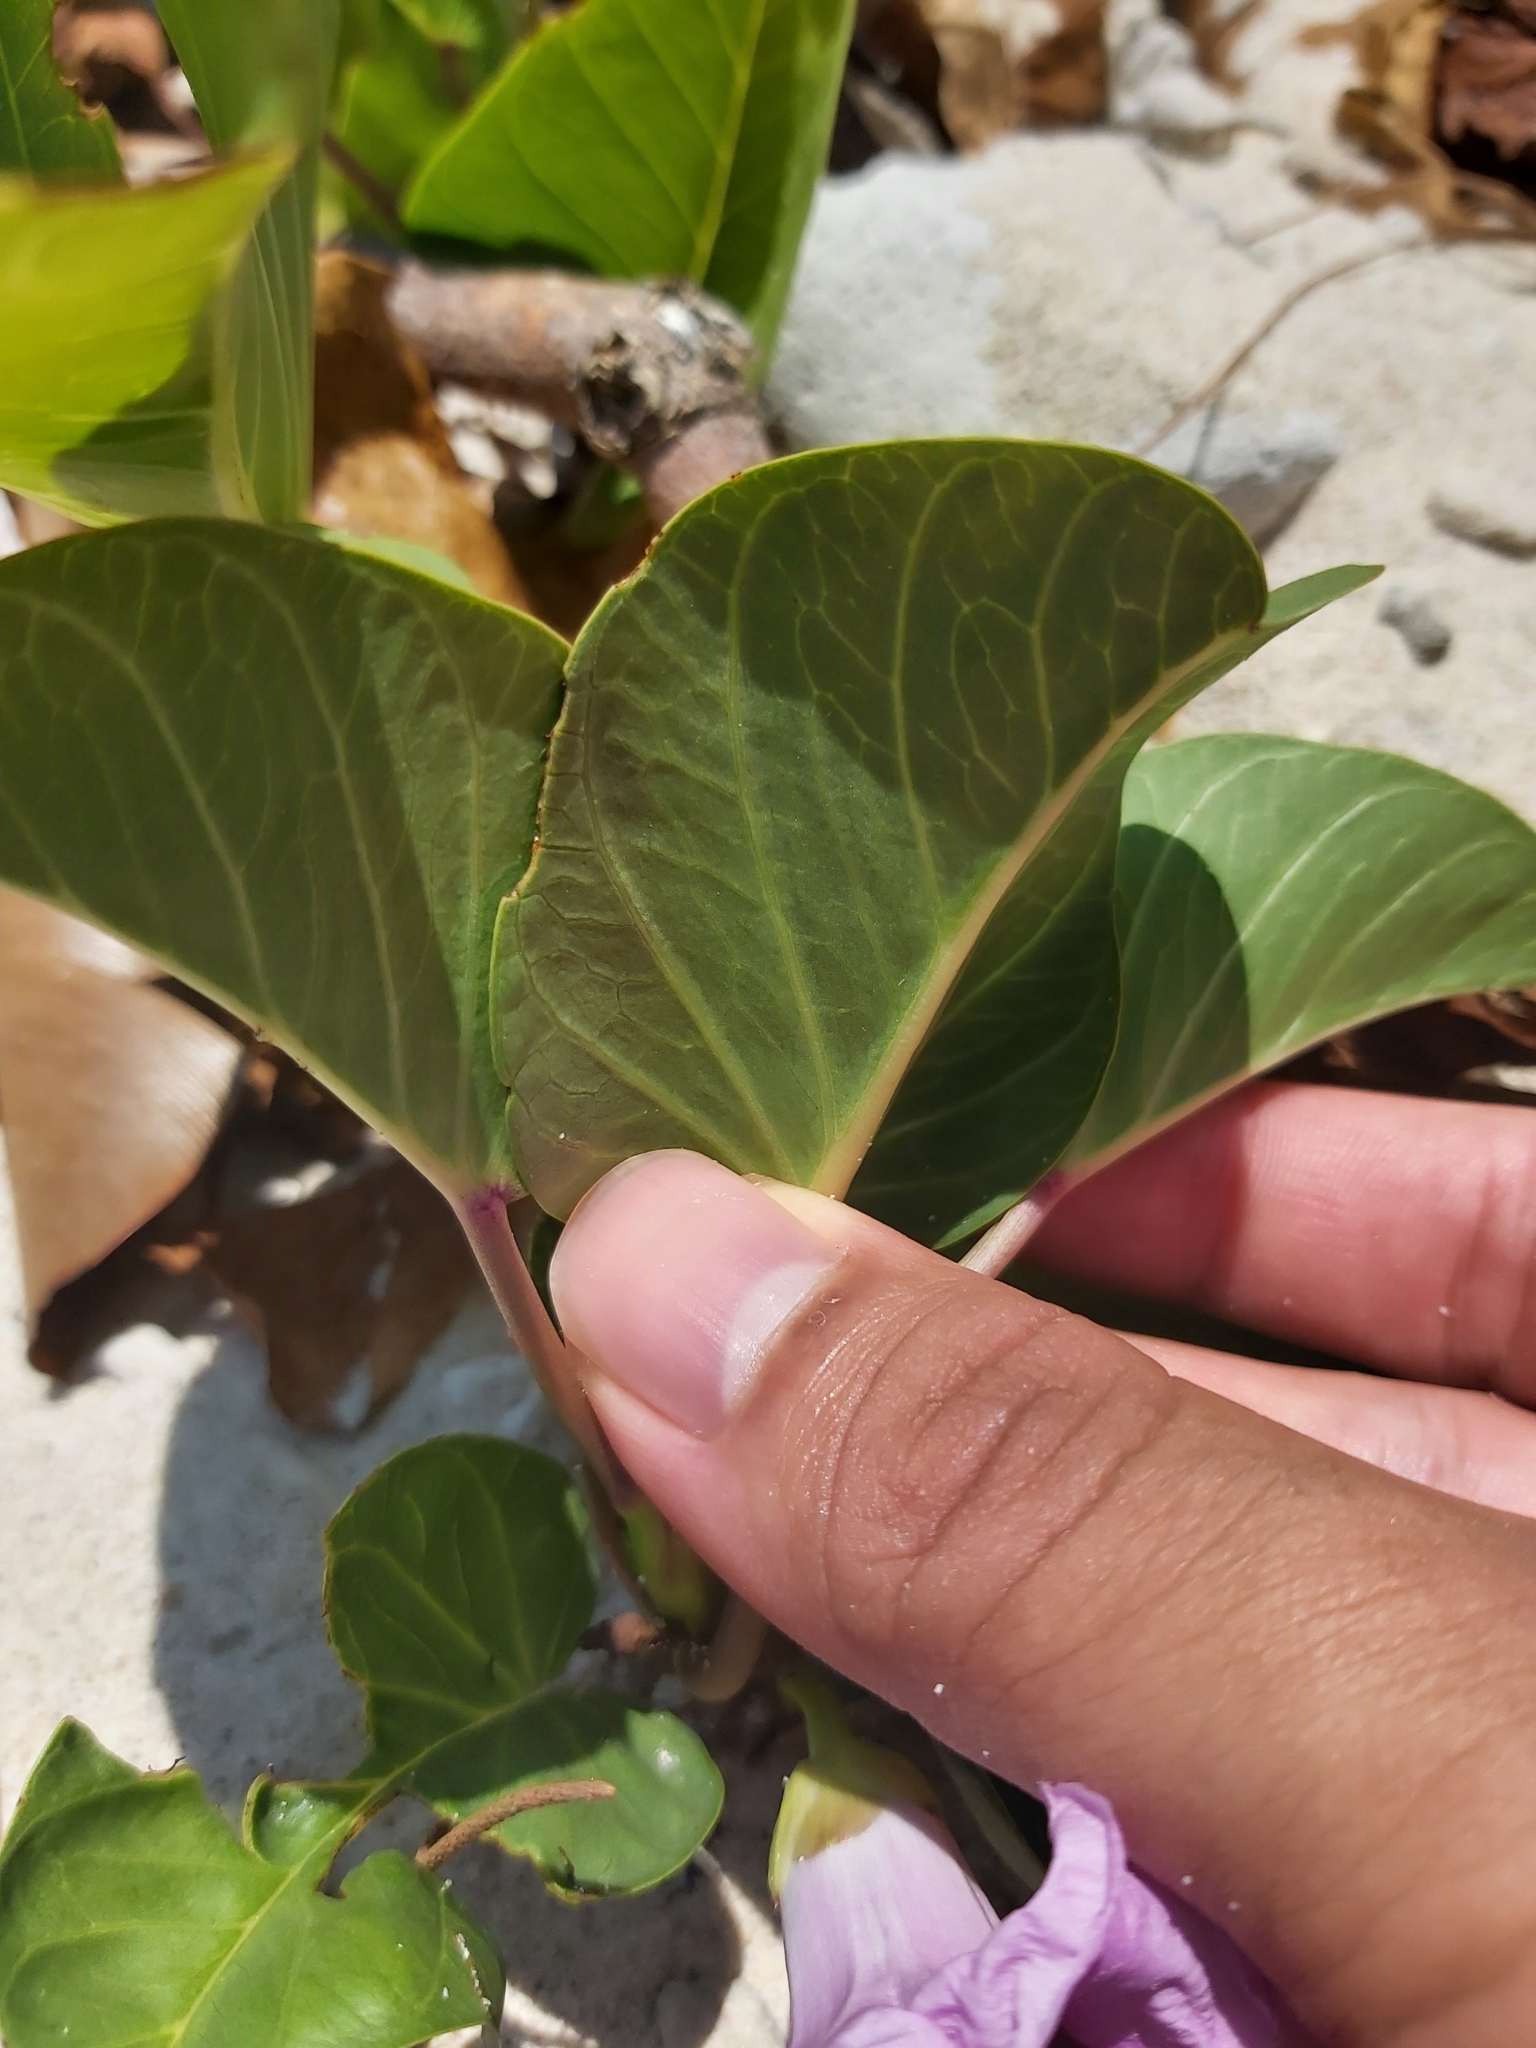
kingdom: Plantae
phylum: Tracheophyta
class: Magnoliopsida
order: Solanales
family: Convolvulaceae
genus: Ipomoea
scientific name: Ipomoea pes-caprae
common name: Beach morning glory
